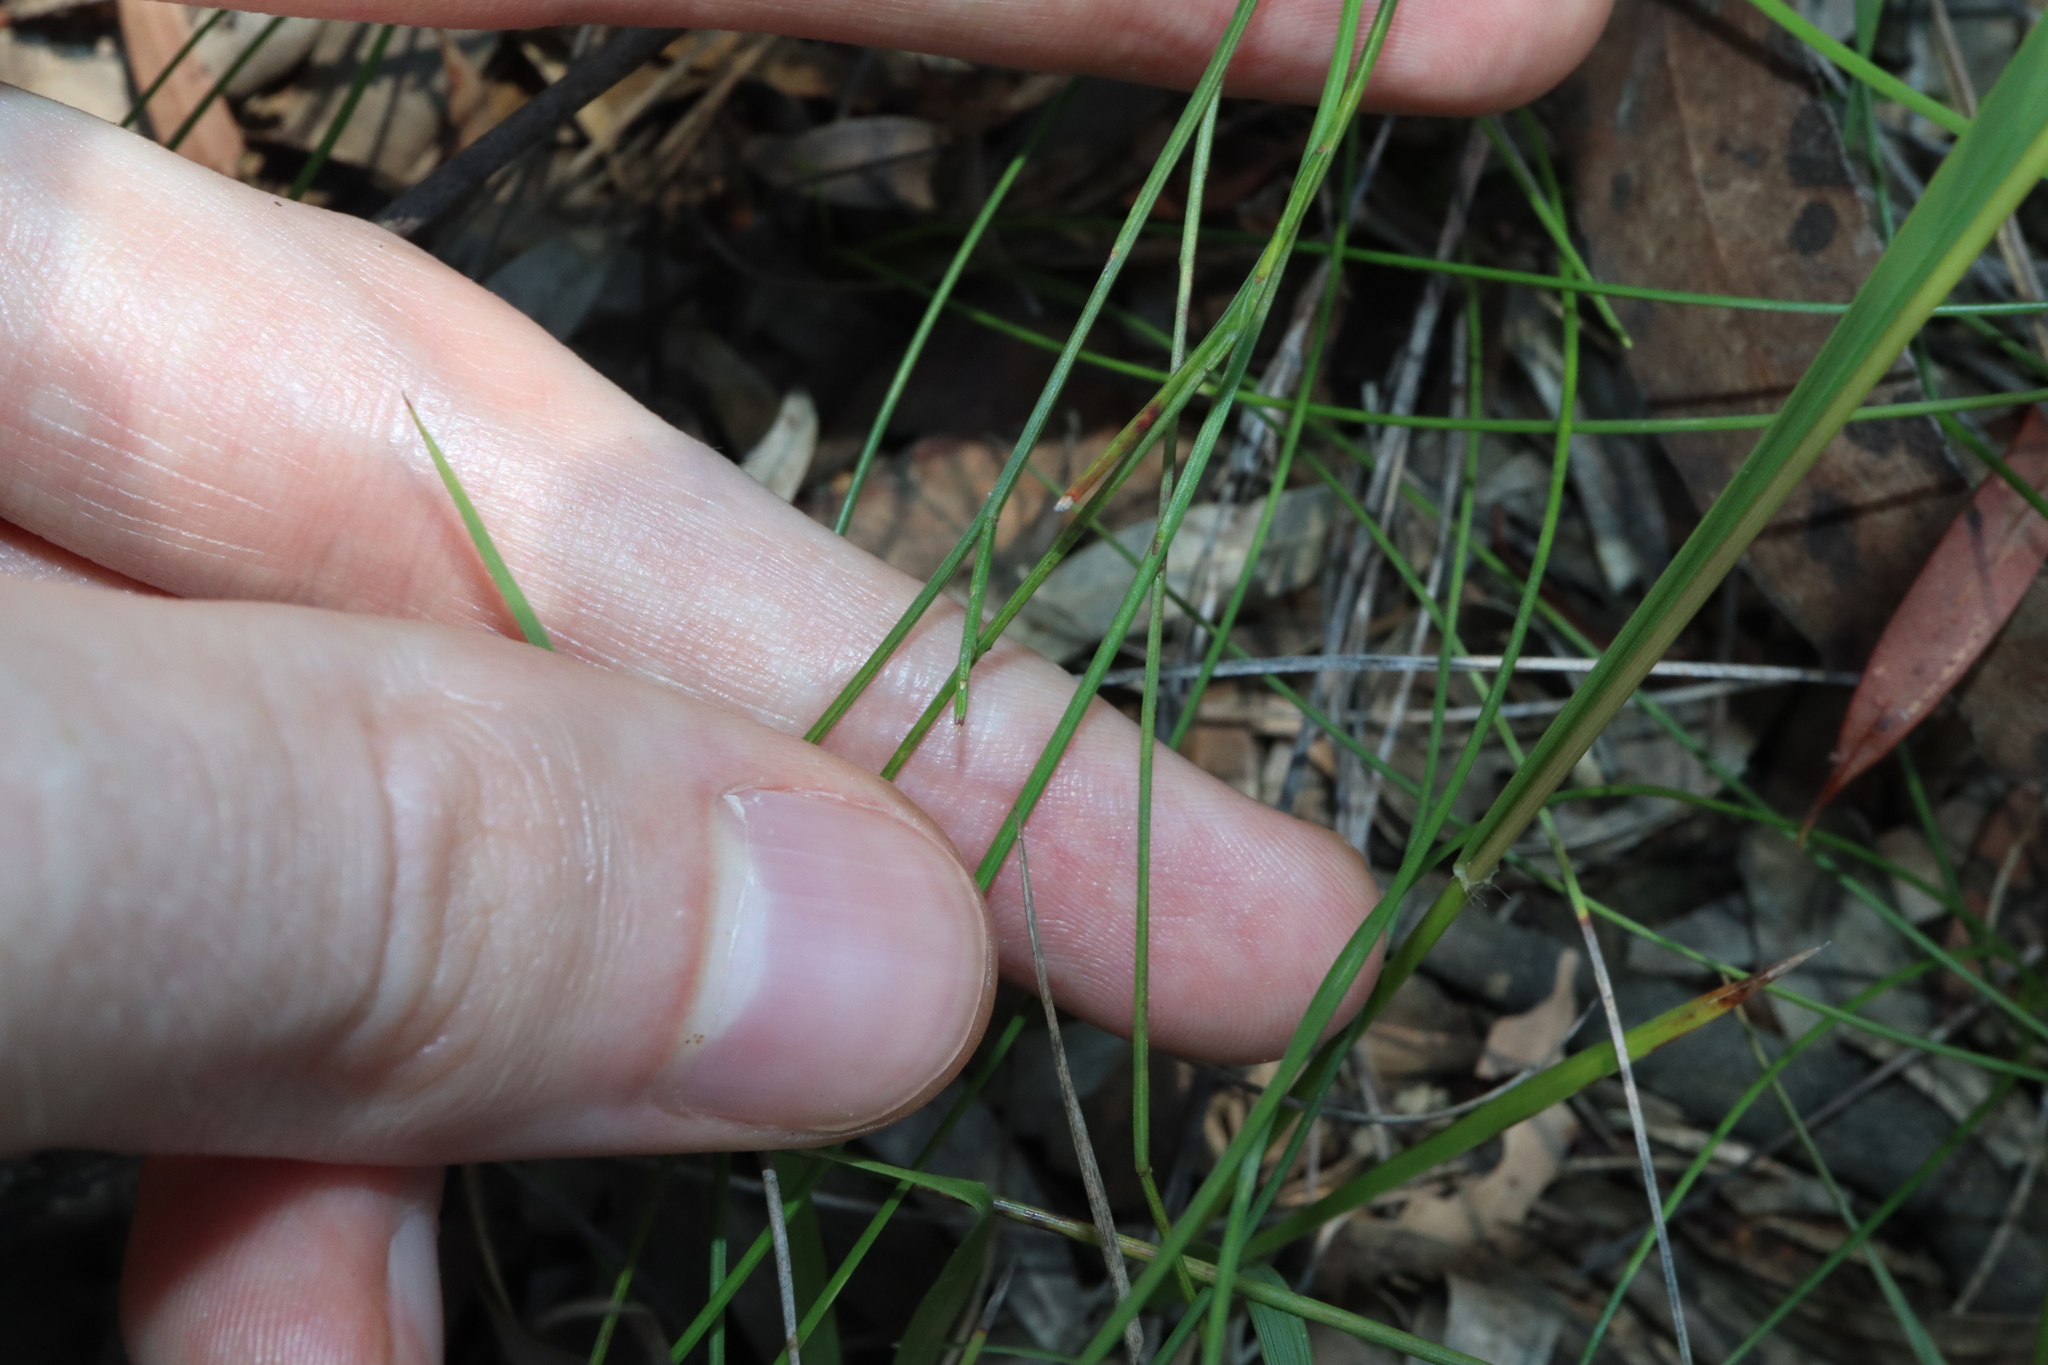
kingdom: Plantae
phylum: Tracheophyta
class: Magnoliopsida
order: Fabales
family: Polygalaceae
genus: Comesperma
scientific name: Comesperma sphaerocarpum
